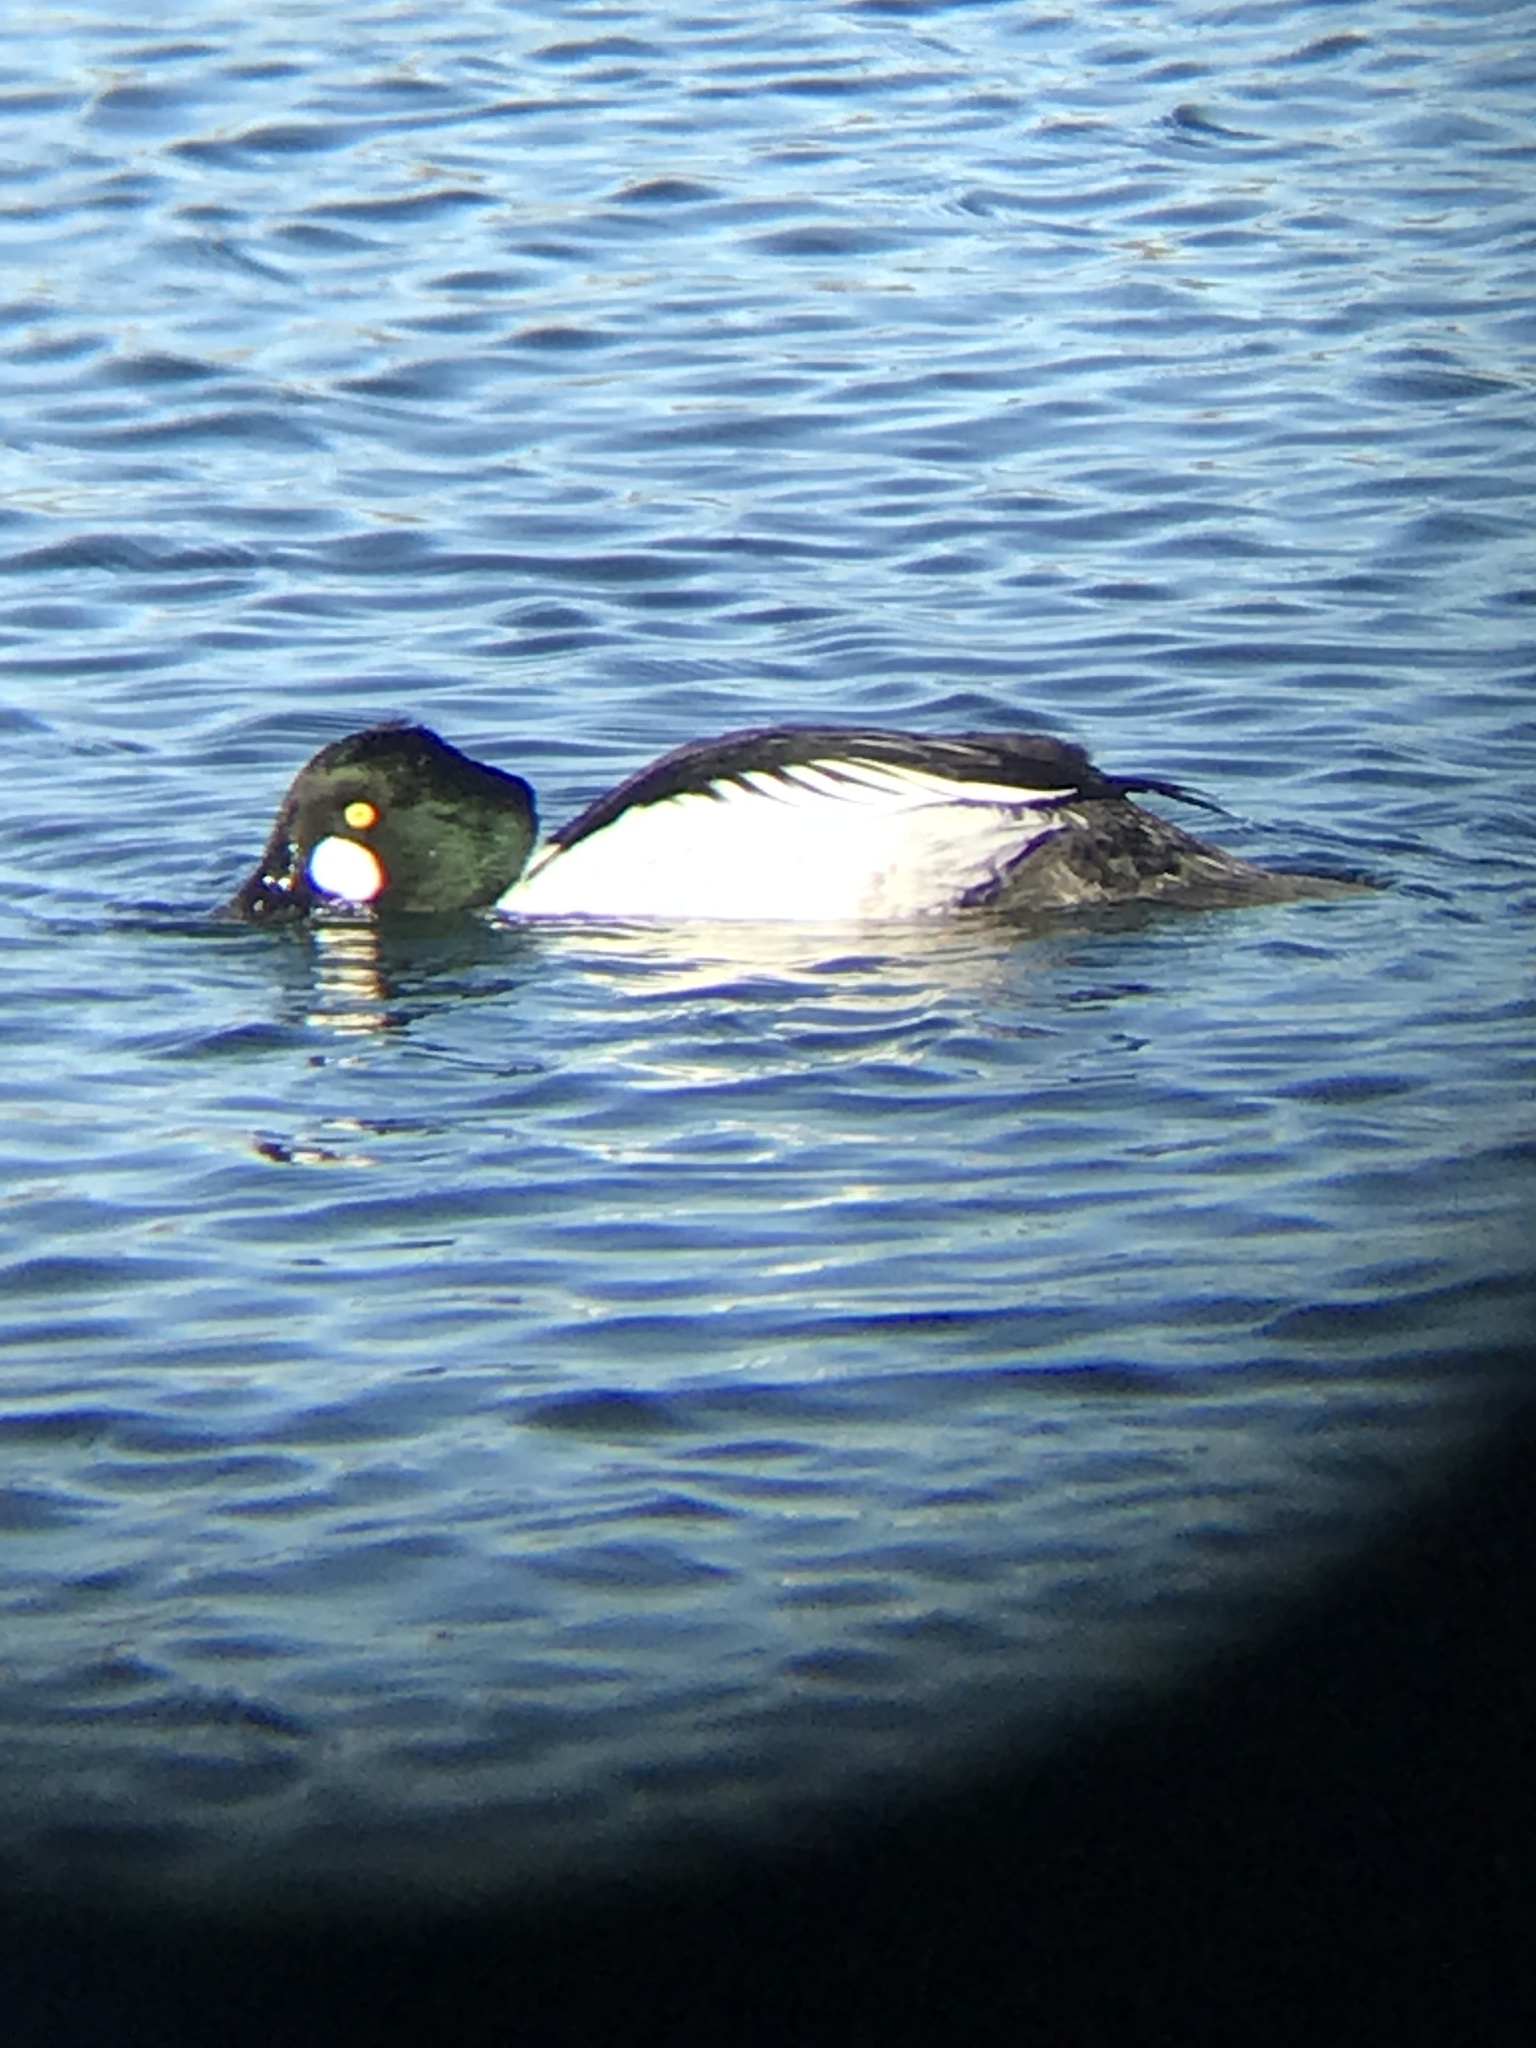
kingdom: Animalia
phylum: Chordata
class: Aves
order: Anseriformes
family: Anatidae
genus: Bucephala
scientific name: Bucephala clangula
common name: Common goldeneye
